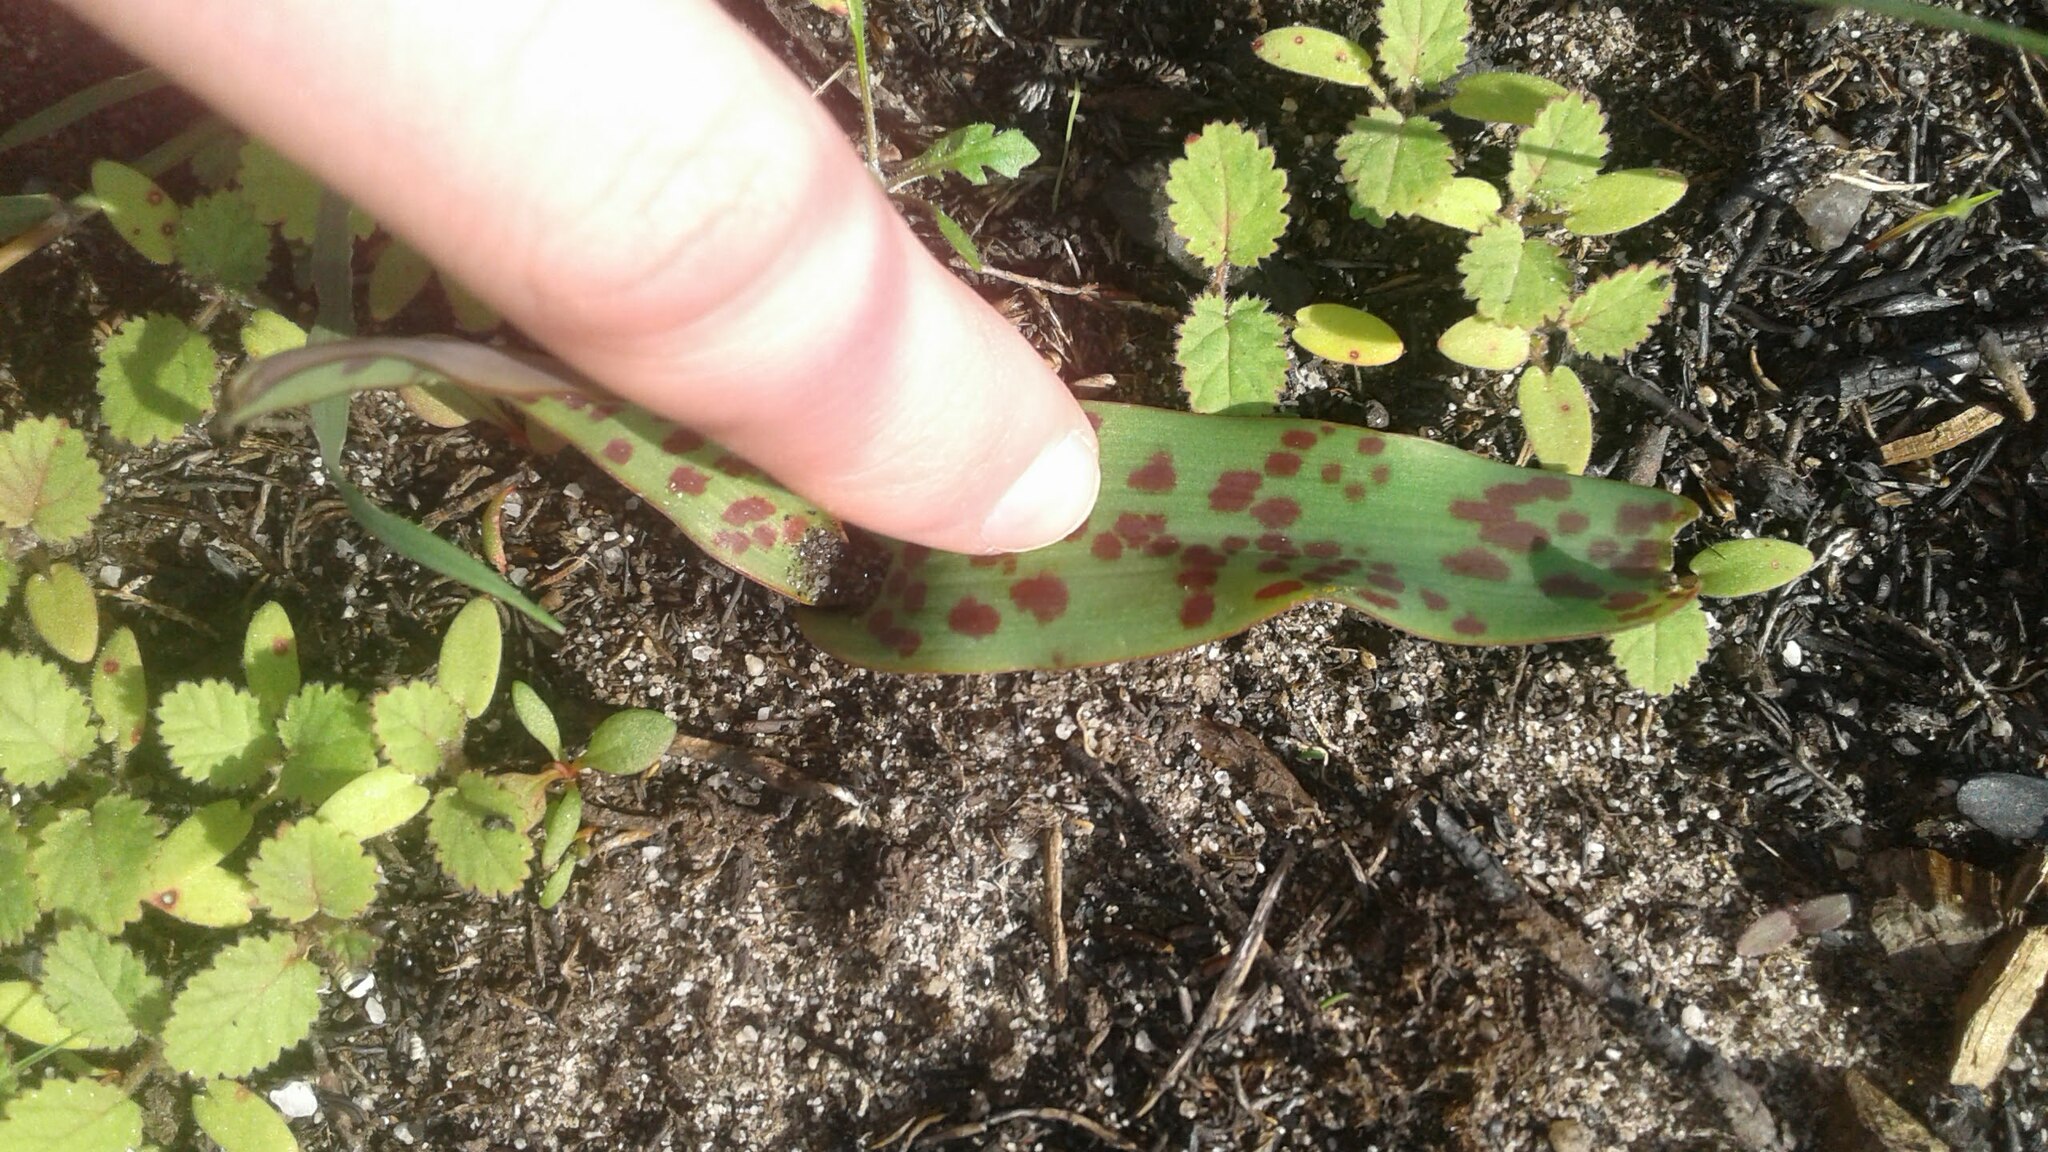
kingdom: Plantae
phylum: Tracheophyta
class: Liliopsida
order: Asparagales
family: Asparagaceae
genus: Lachenalia
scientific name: Lachenalia orchioides
